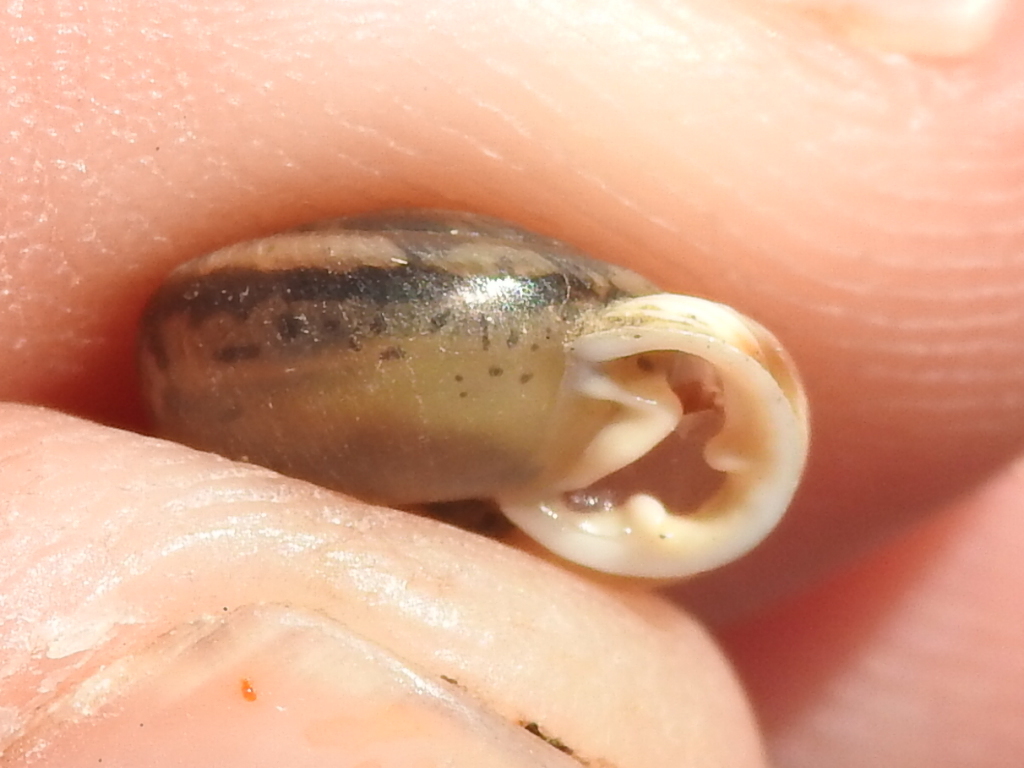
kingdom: Animalia
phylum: Mollusca
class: Gastropoda
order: Stylommatophora
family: Polygyridae
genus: Linisa
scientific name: Linisa texasiana
